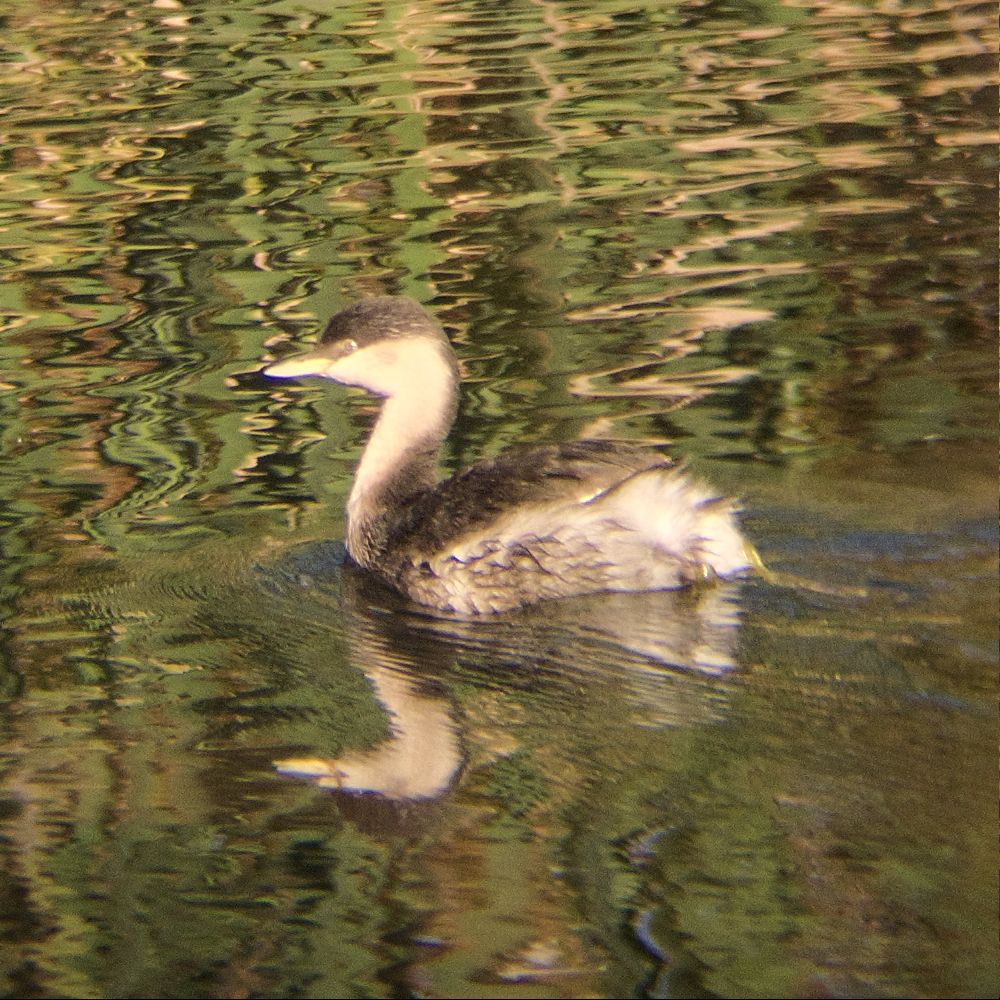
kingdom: Animalia
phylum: Chordata
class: Aves
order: Podicipediformes
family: Podicipedidae
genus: Poliocephalus
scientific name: Poliocephalus poliocephalus
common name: Hoary-headed grebe
